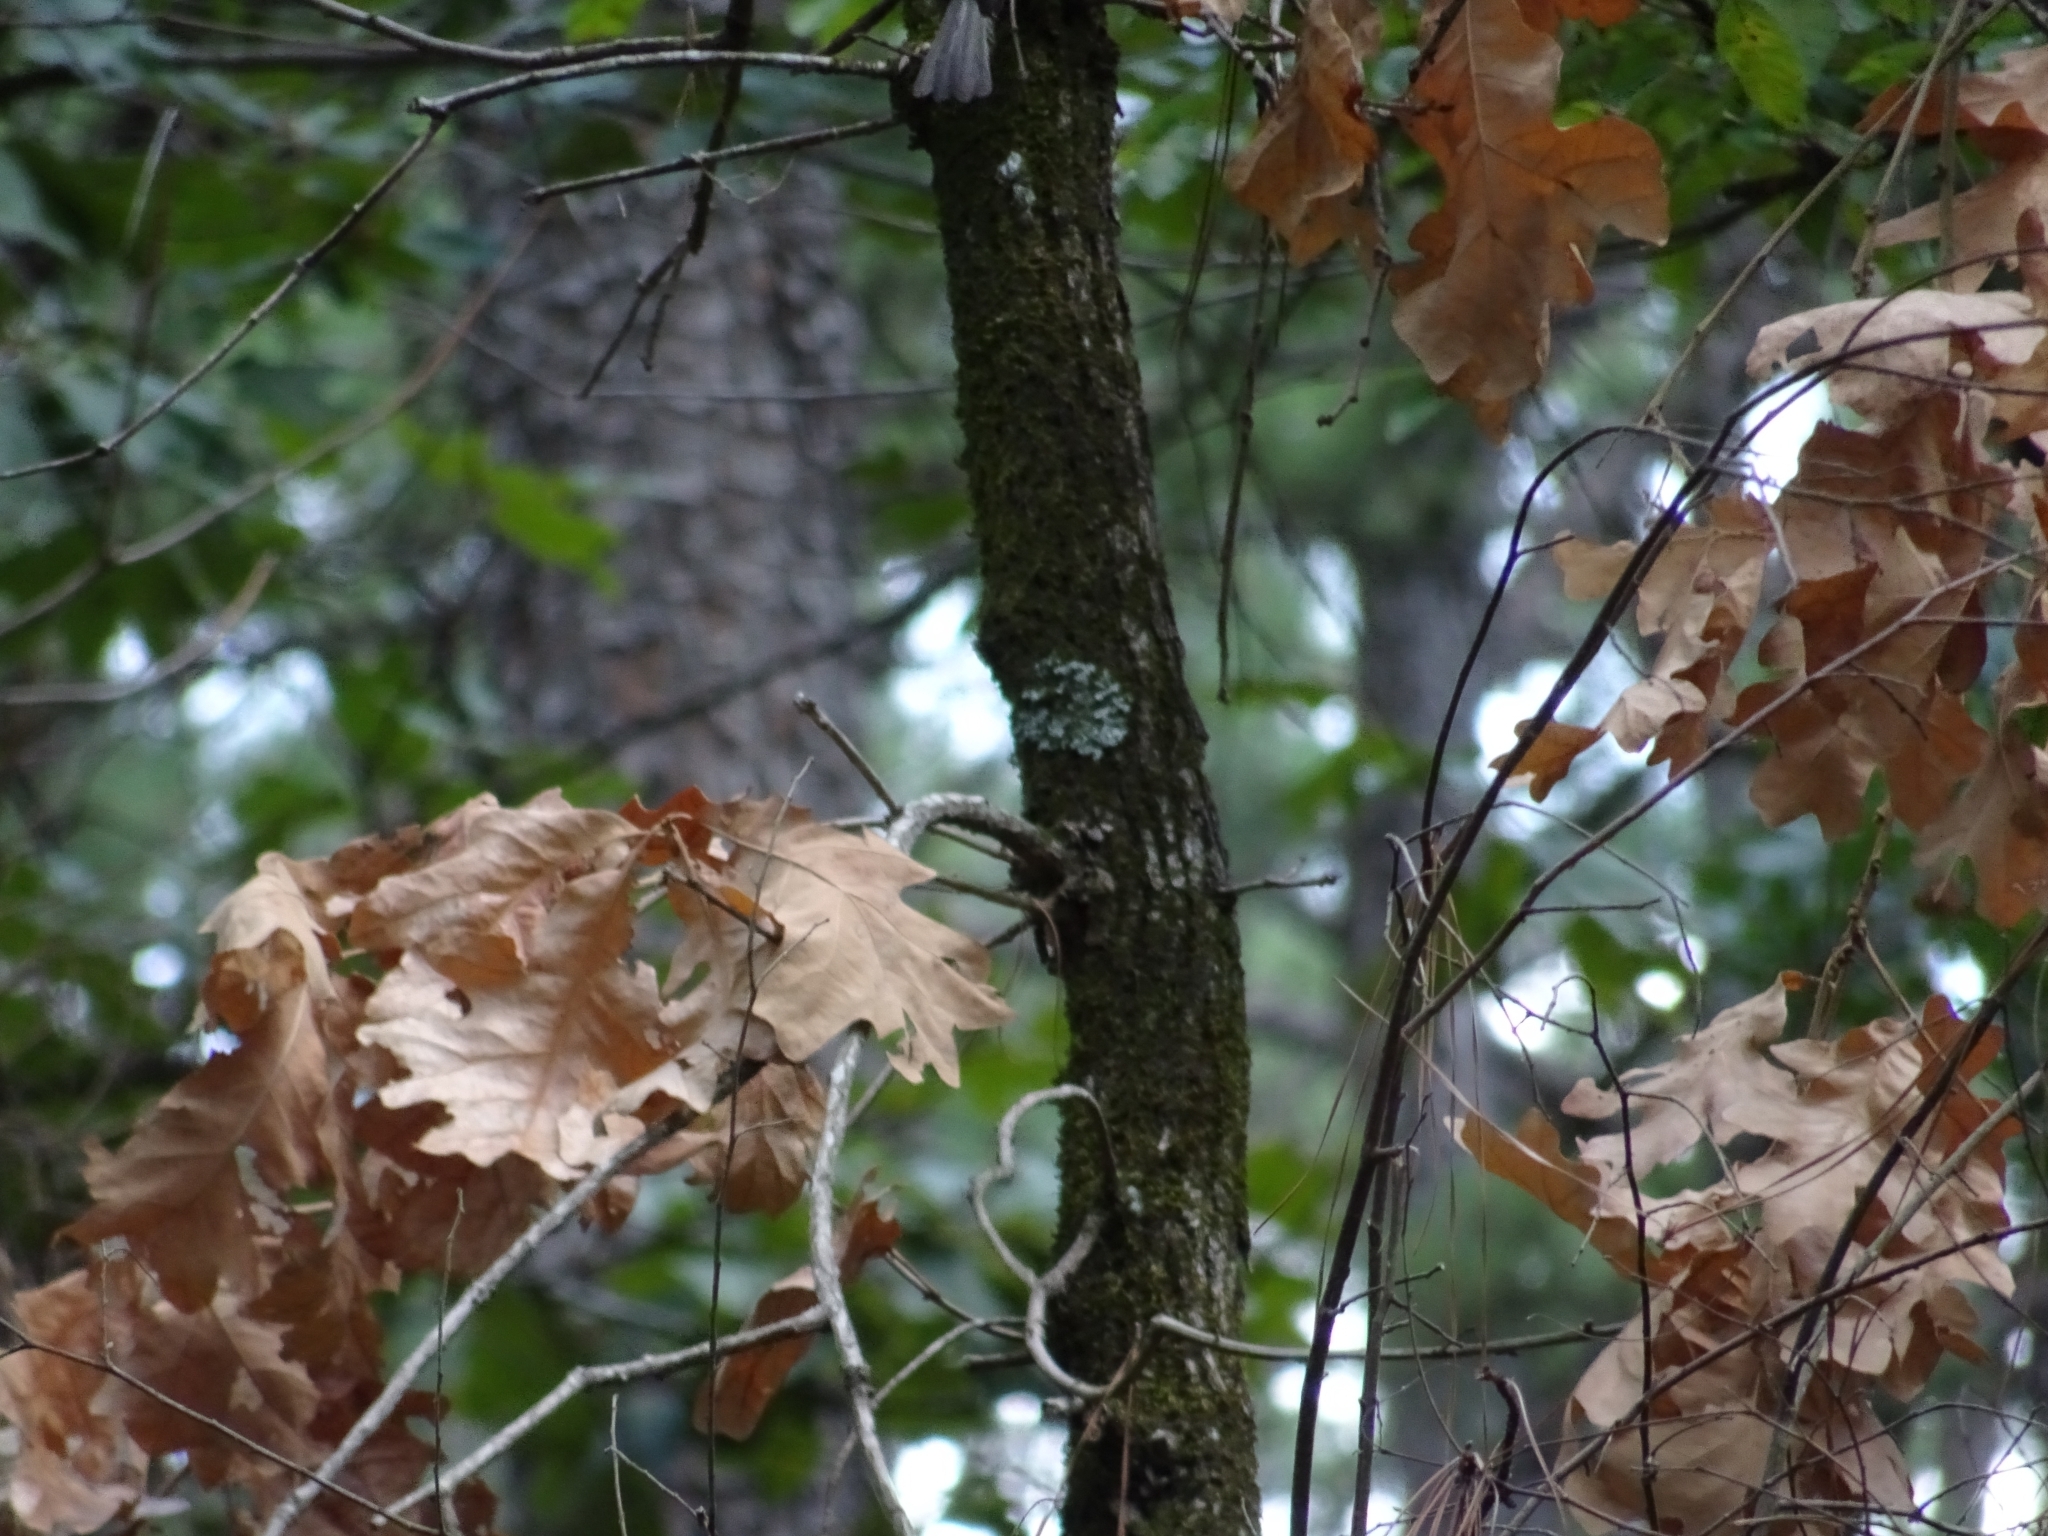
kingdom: Animalia
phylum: Chordata
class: Aves
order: Passeriformes
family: Paridae
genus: Baeolophus
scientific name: Baeolophus bicolor
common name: Tufted titmouse
